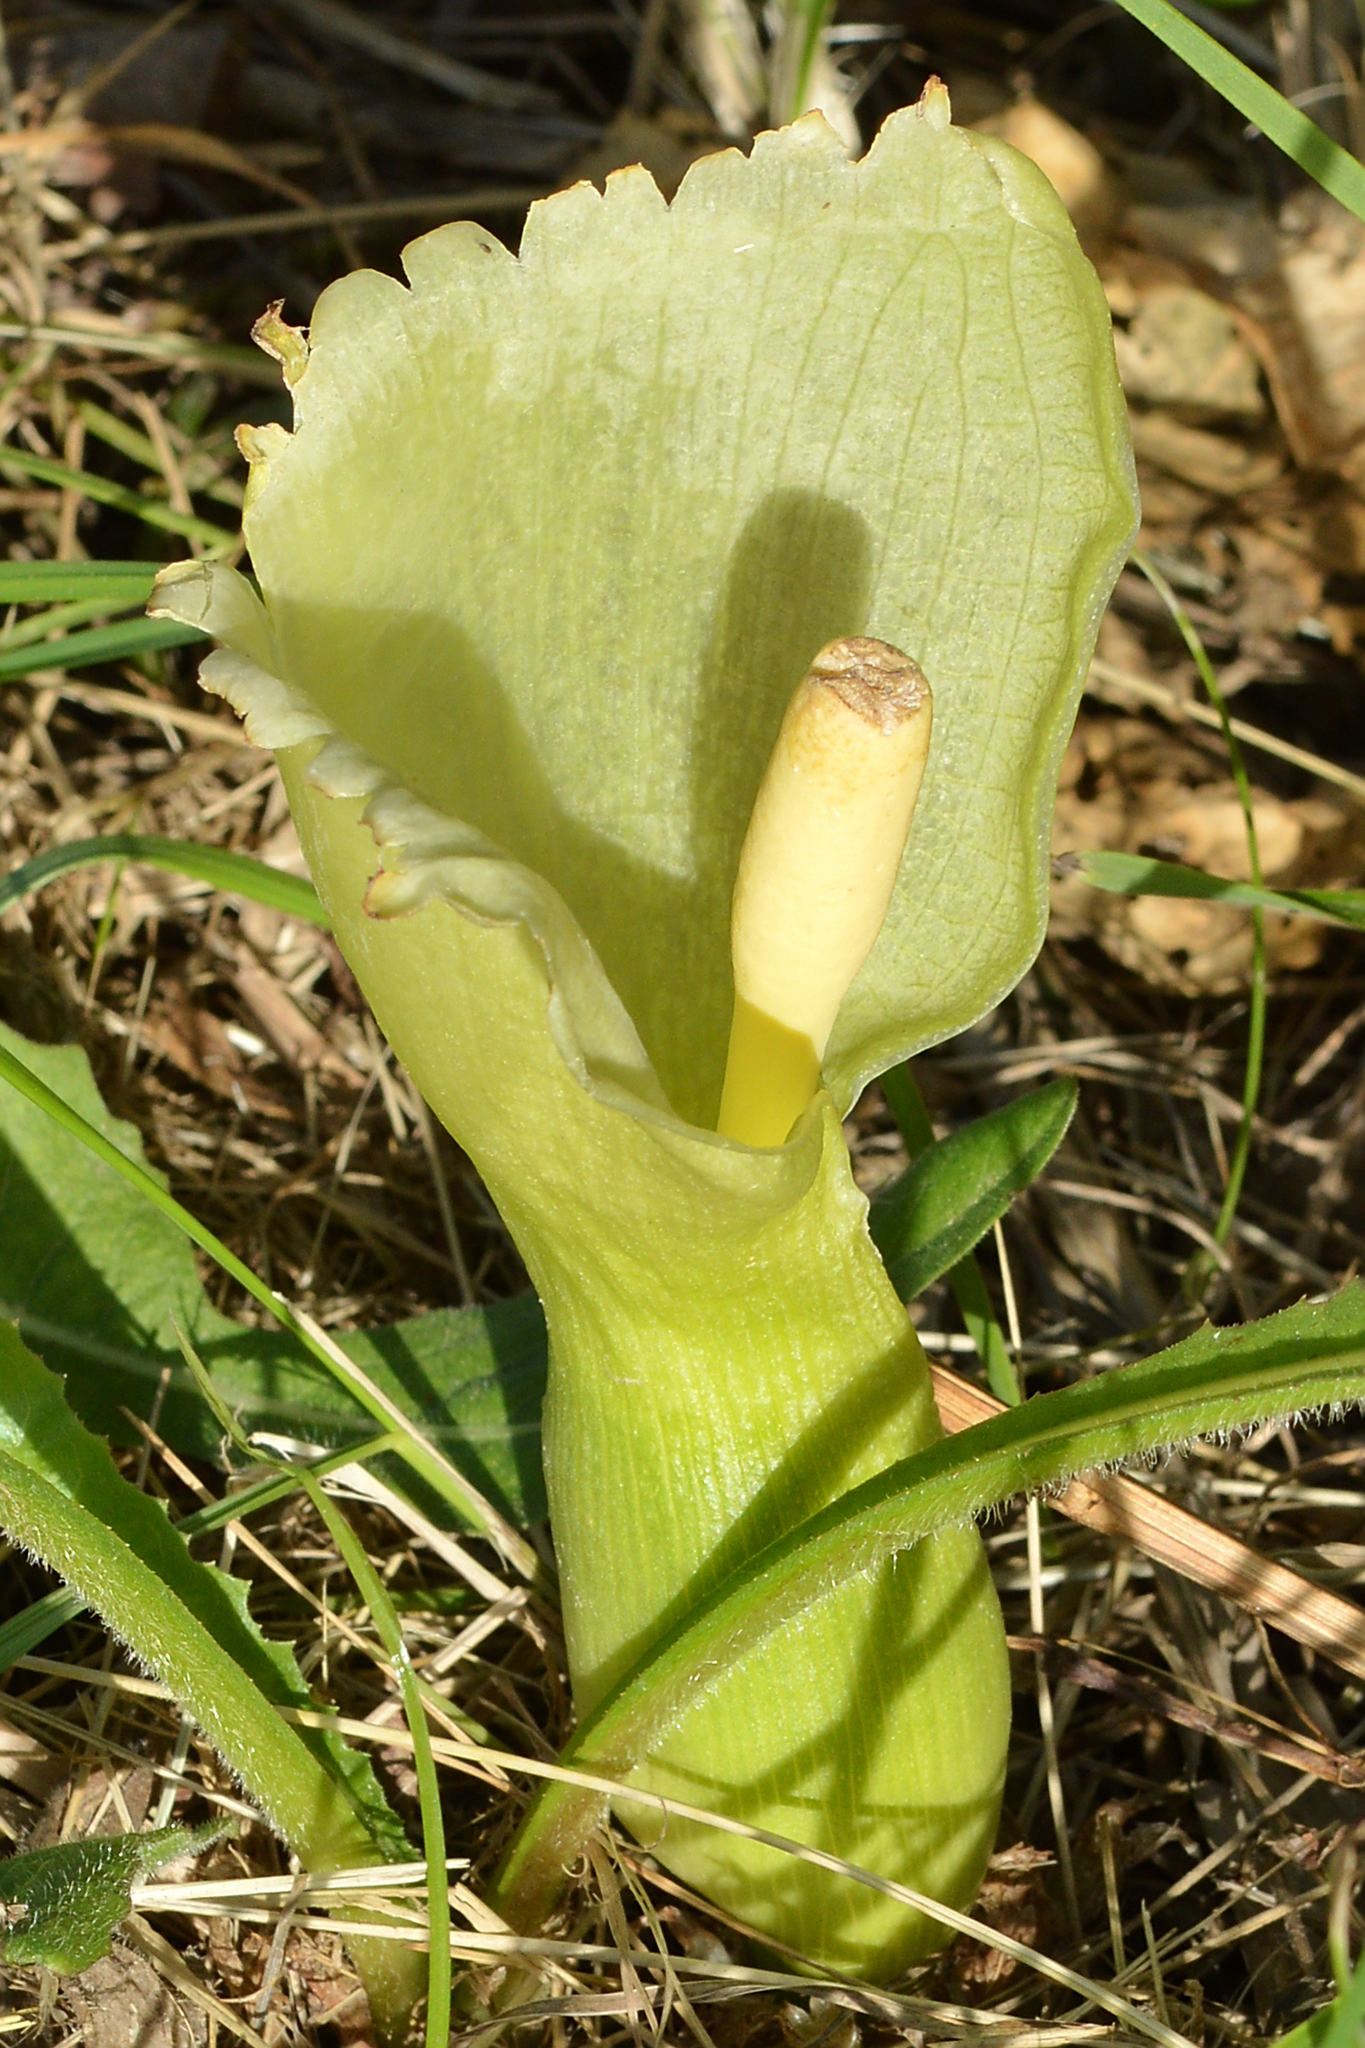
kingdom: Plantae
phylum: Tracheophyta
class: Liliopsida
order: Alismatales
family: Araceae
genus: Arum
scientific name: Arum italicum
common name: Italian lords-and-ladies
